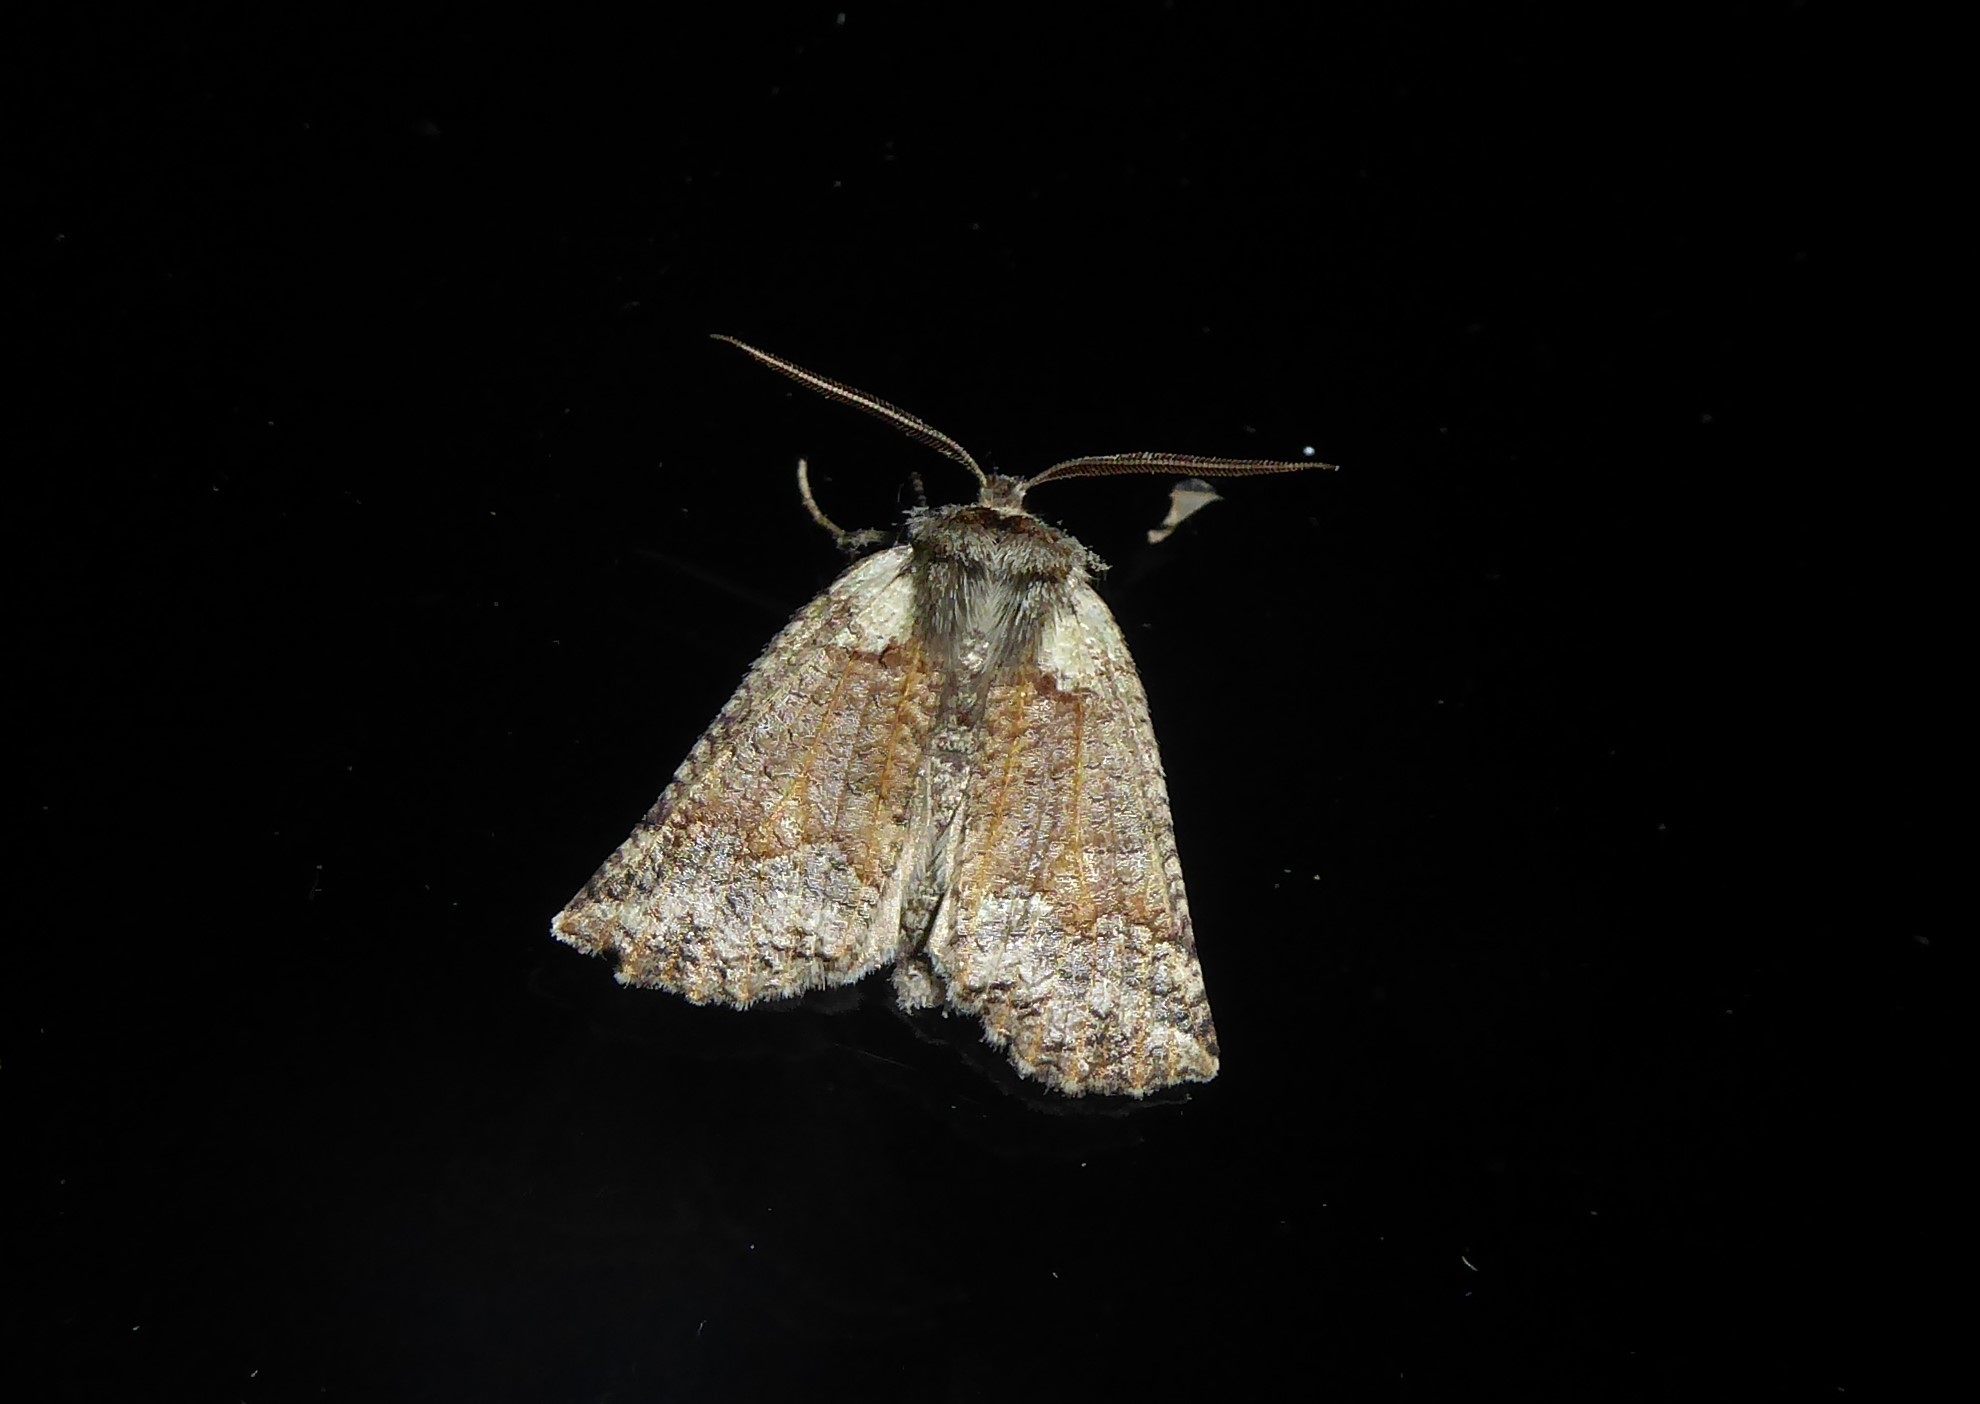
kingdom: Animalia
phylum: Arthropoda
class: Insecta
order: Lepidoptera
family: Geometridae
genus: Declana
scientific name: Declana floccosa
